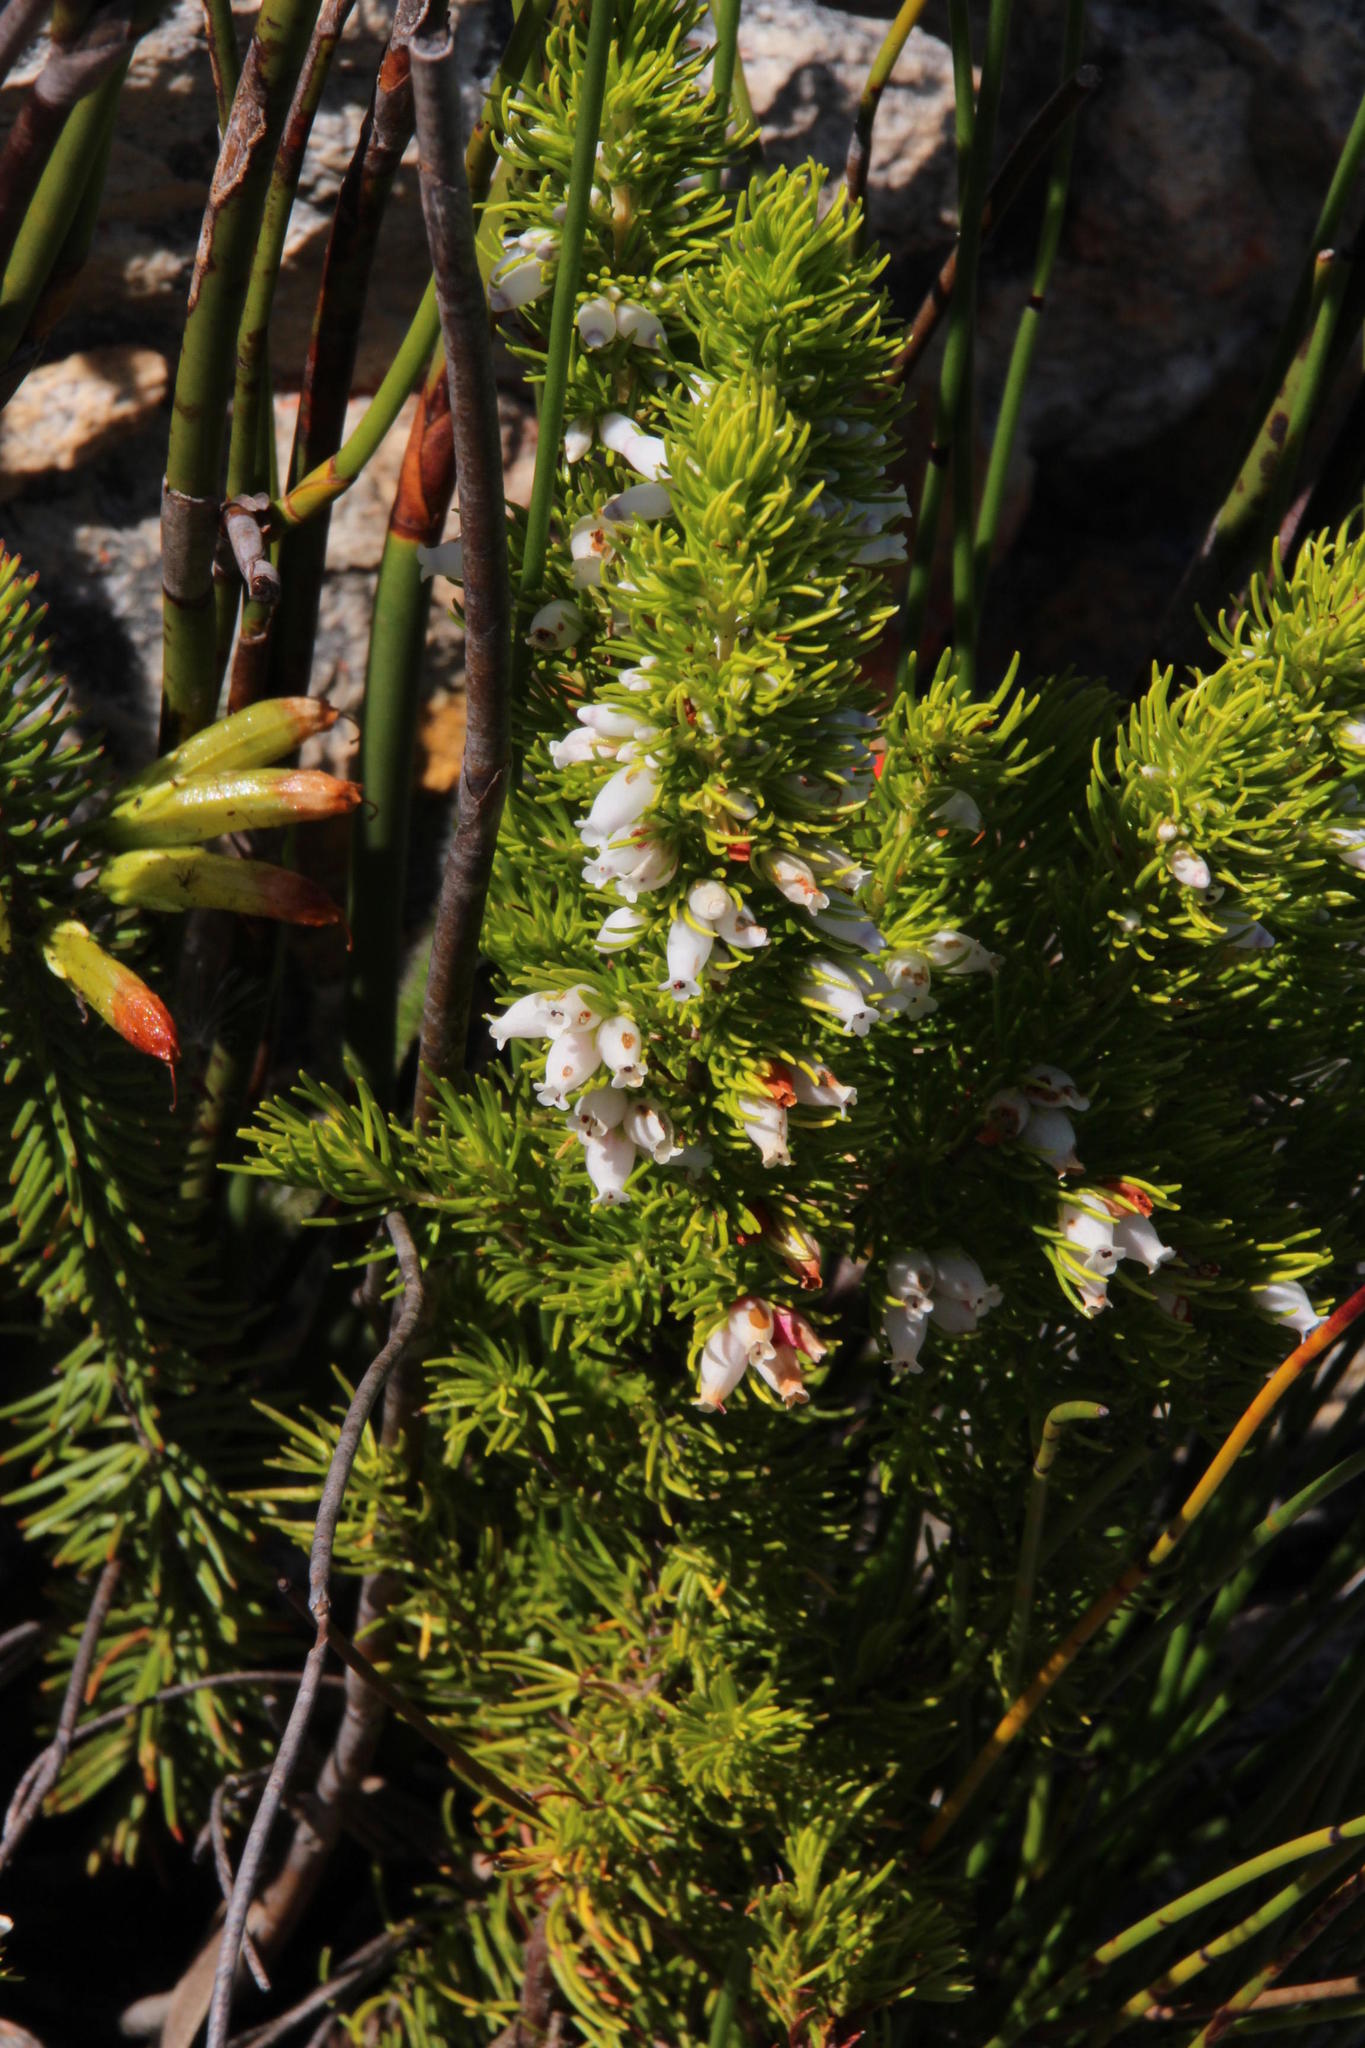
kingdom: Plantae
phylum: Tracheophyta
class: Magnoliopsida
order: Ericales
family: Ericaceae
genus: Erica
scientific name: Erica sitiens
